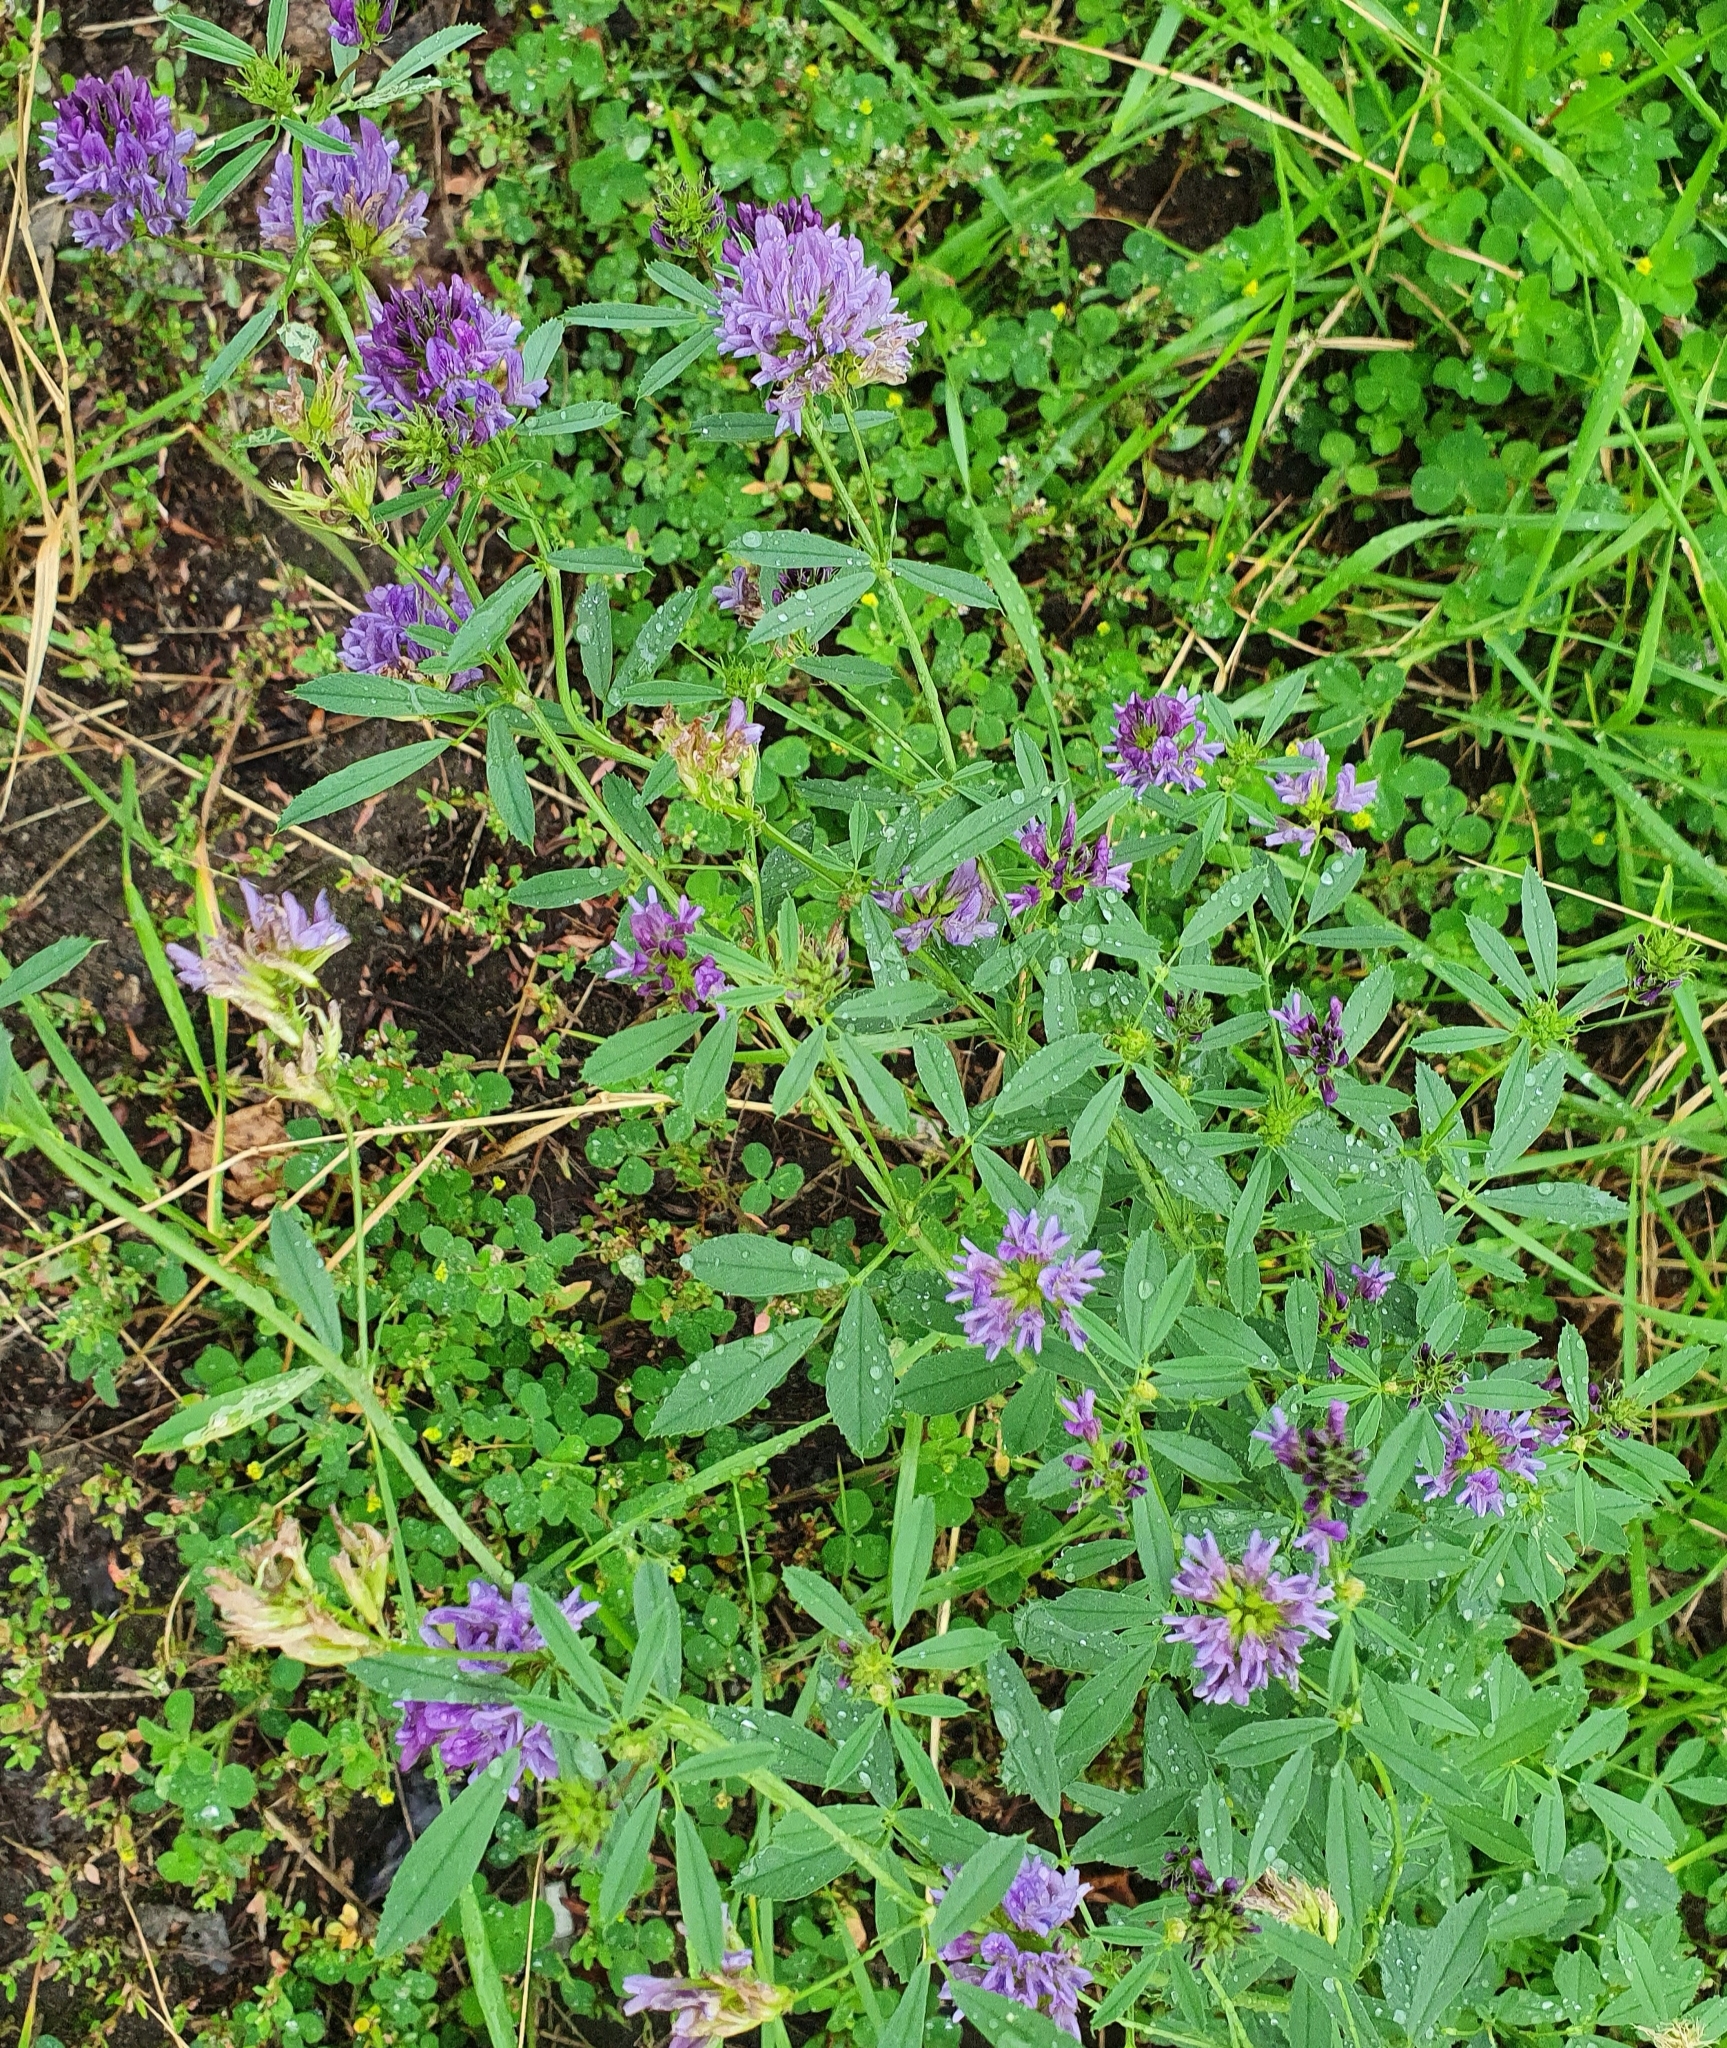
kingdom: Plantae
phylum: Tracheophyta
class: Magnoliopsida
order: Fabales
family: Fabaceae
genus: Medicago
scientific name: Medicago sativa
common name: Alfalfa
